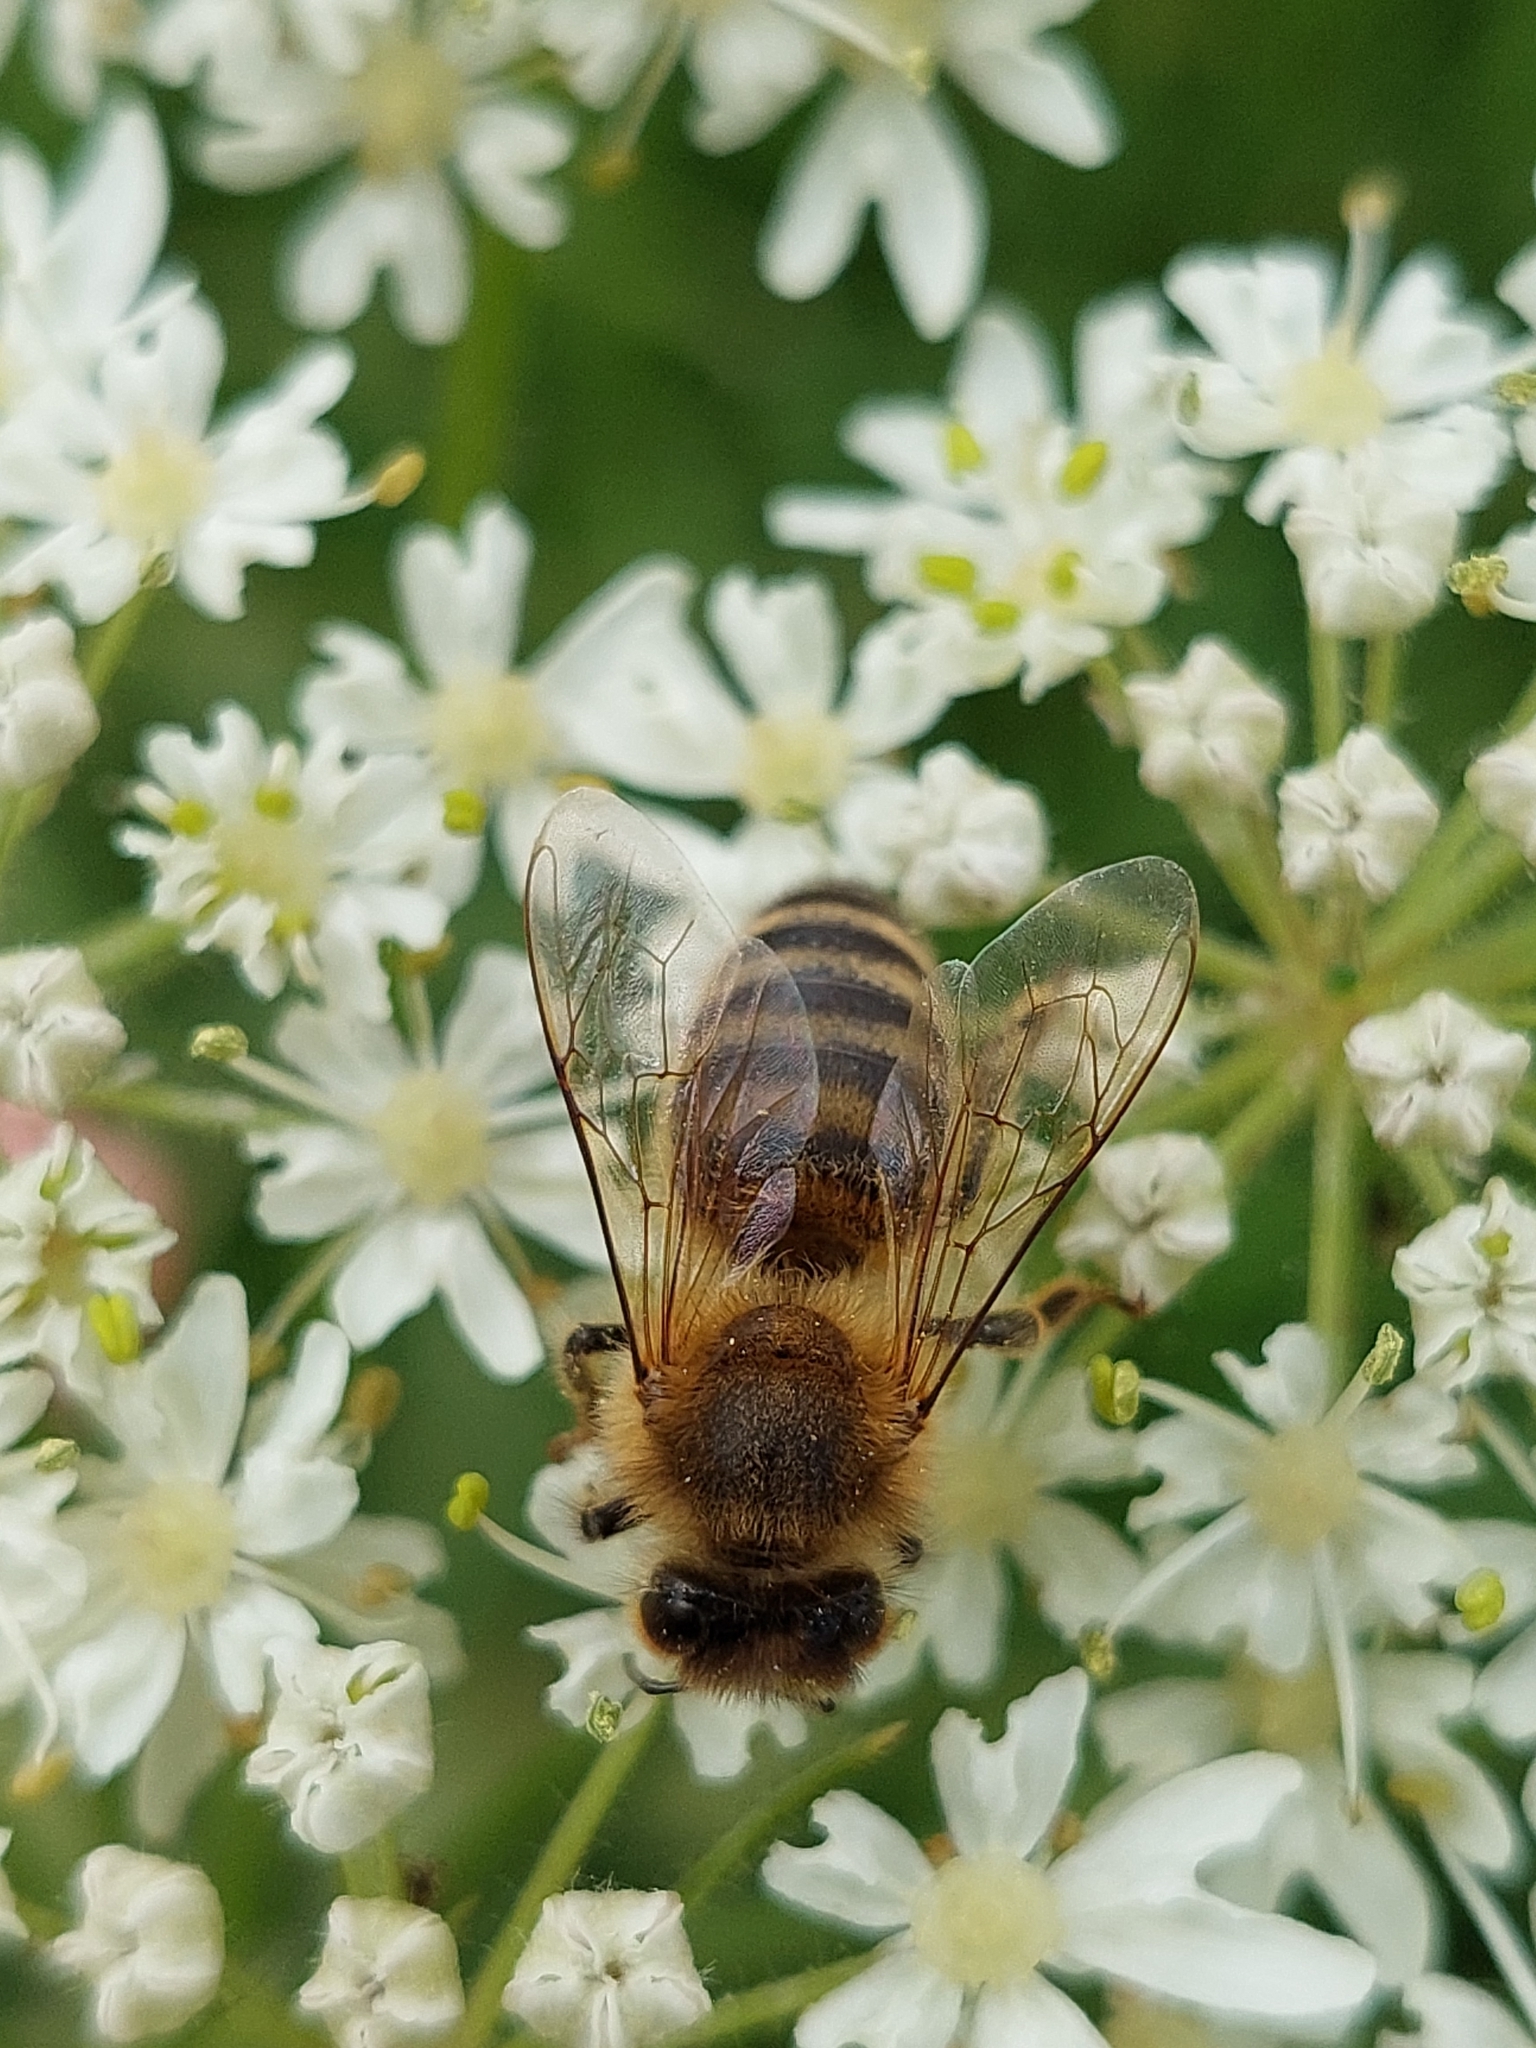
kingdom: Animalia
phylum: Arthropoda
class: Insecta
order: Hymenoptera
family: Apidae
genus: Apis
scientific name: Apis mellifera
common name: Honey bee
